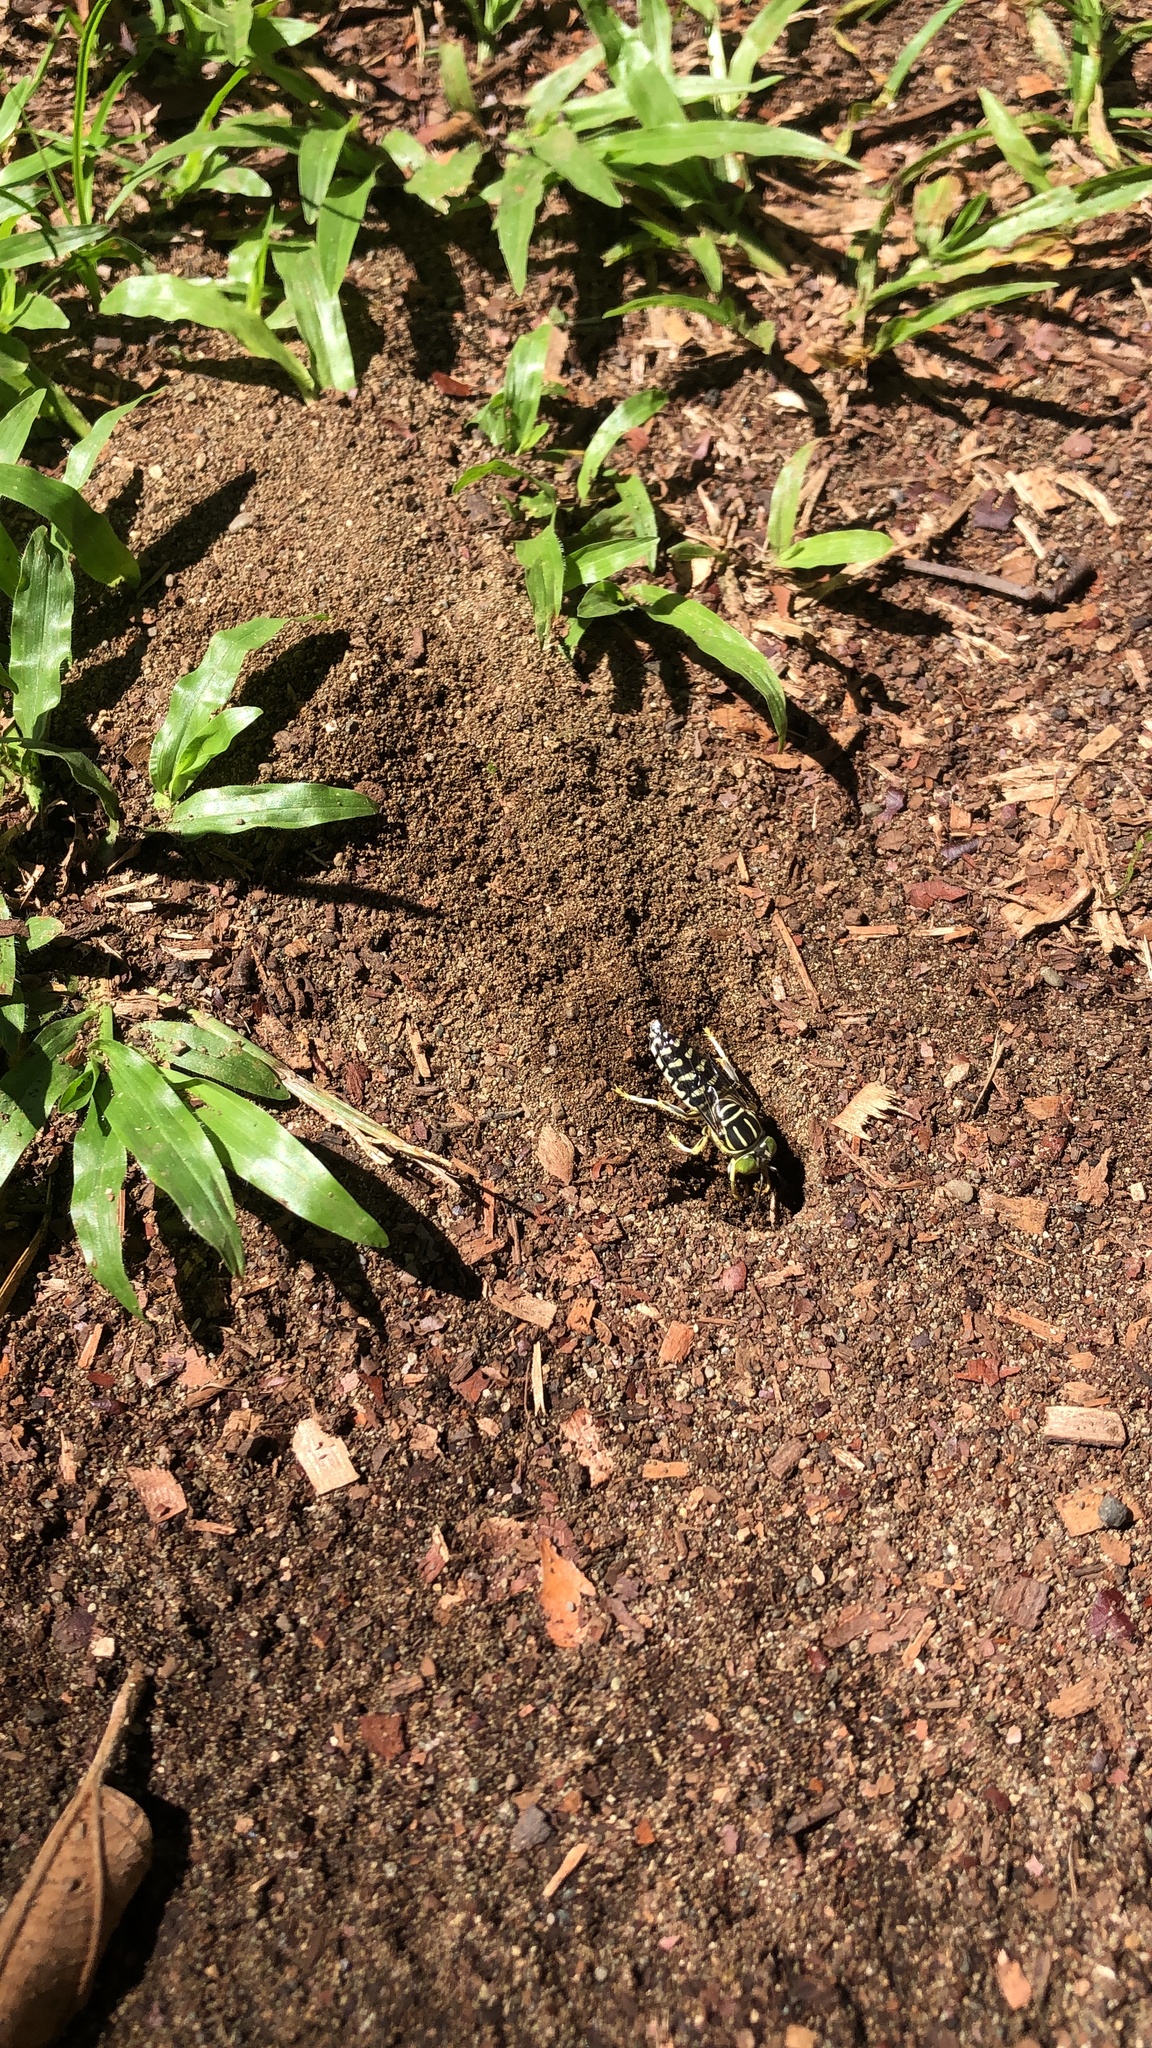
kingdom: Animalia
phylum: Arthropoda
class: Insecta
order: Hymenoptera
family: Crabronidae
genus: Stictia
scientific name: Stictia signata
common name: Sand wasp
